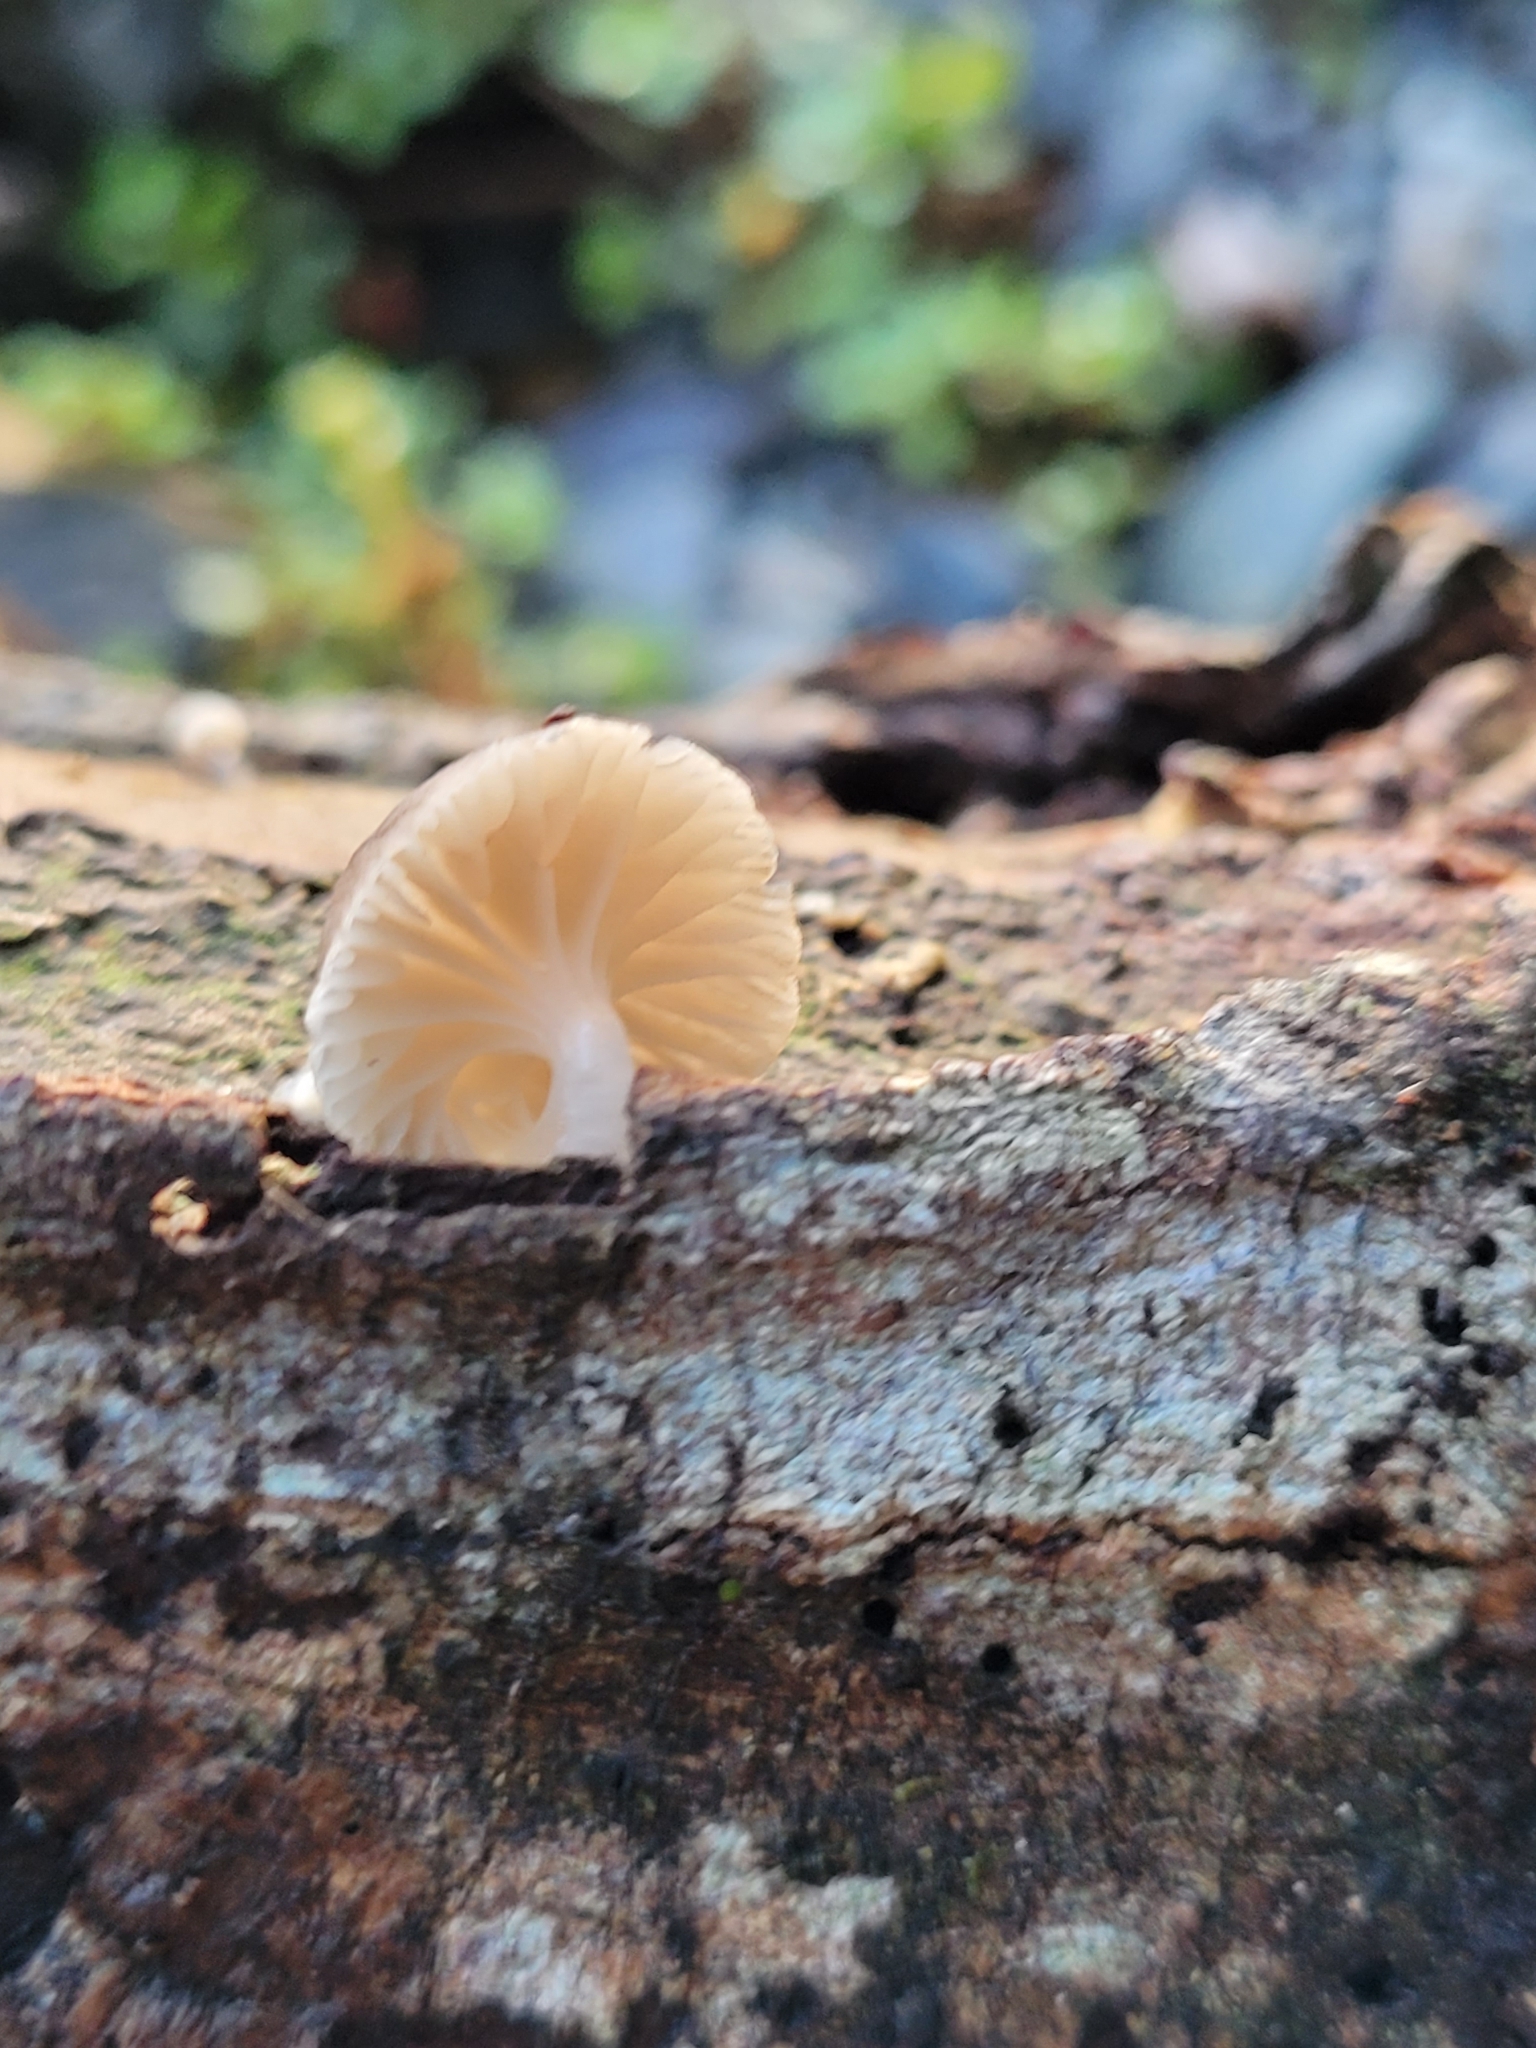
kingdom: Fungi
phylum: Basidiomycota
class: Agaricomycetes
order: Agaricales
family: Mycenaceae
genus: Roridomyces
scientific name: Roridomyces austrororidus
